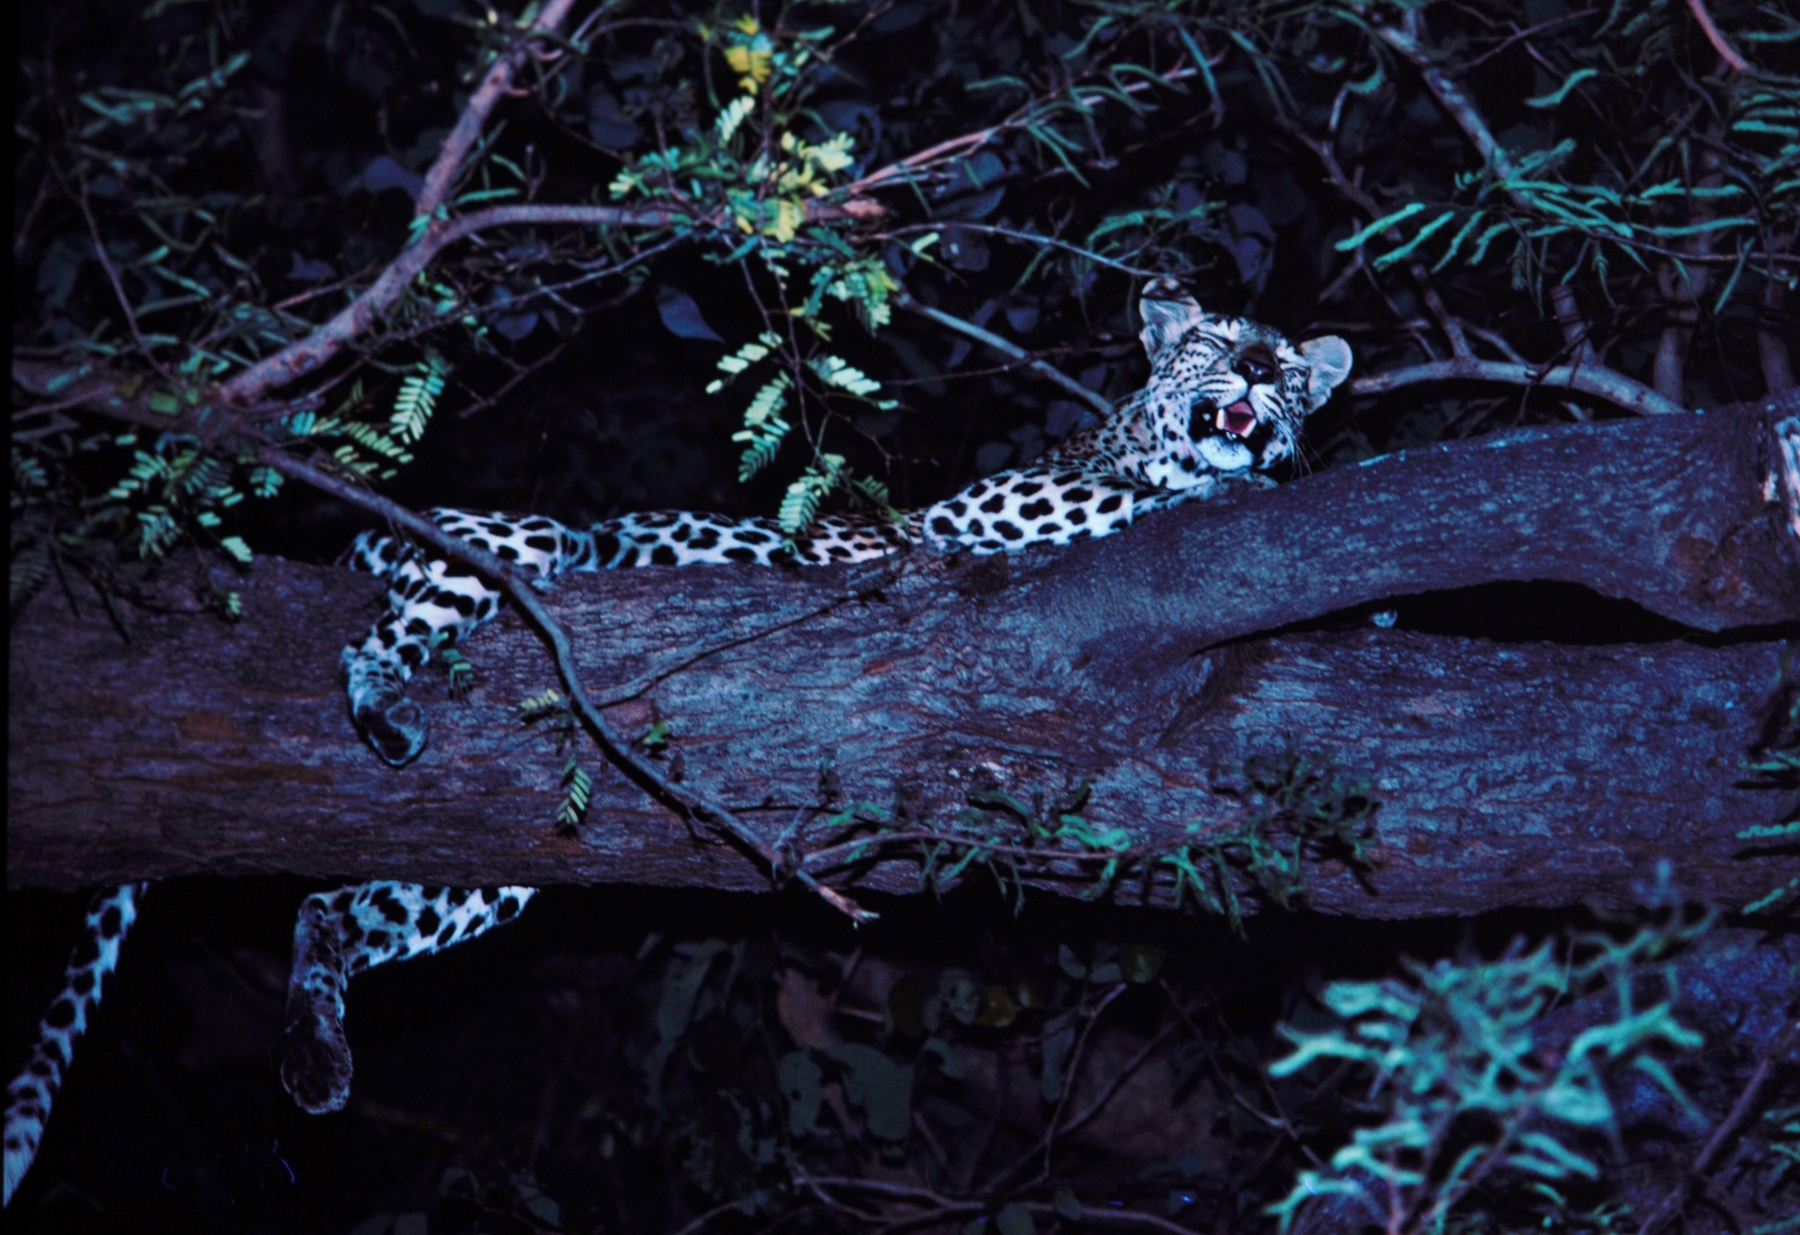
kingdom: Animalia
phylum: Chordata
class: Mammalia
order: Carnivora
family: Felidae
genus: Panthera
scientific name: Panthera pardus
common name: Leopard
